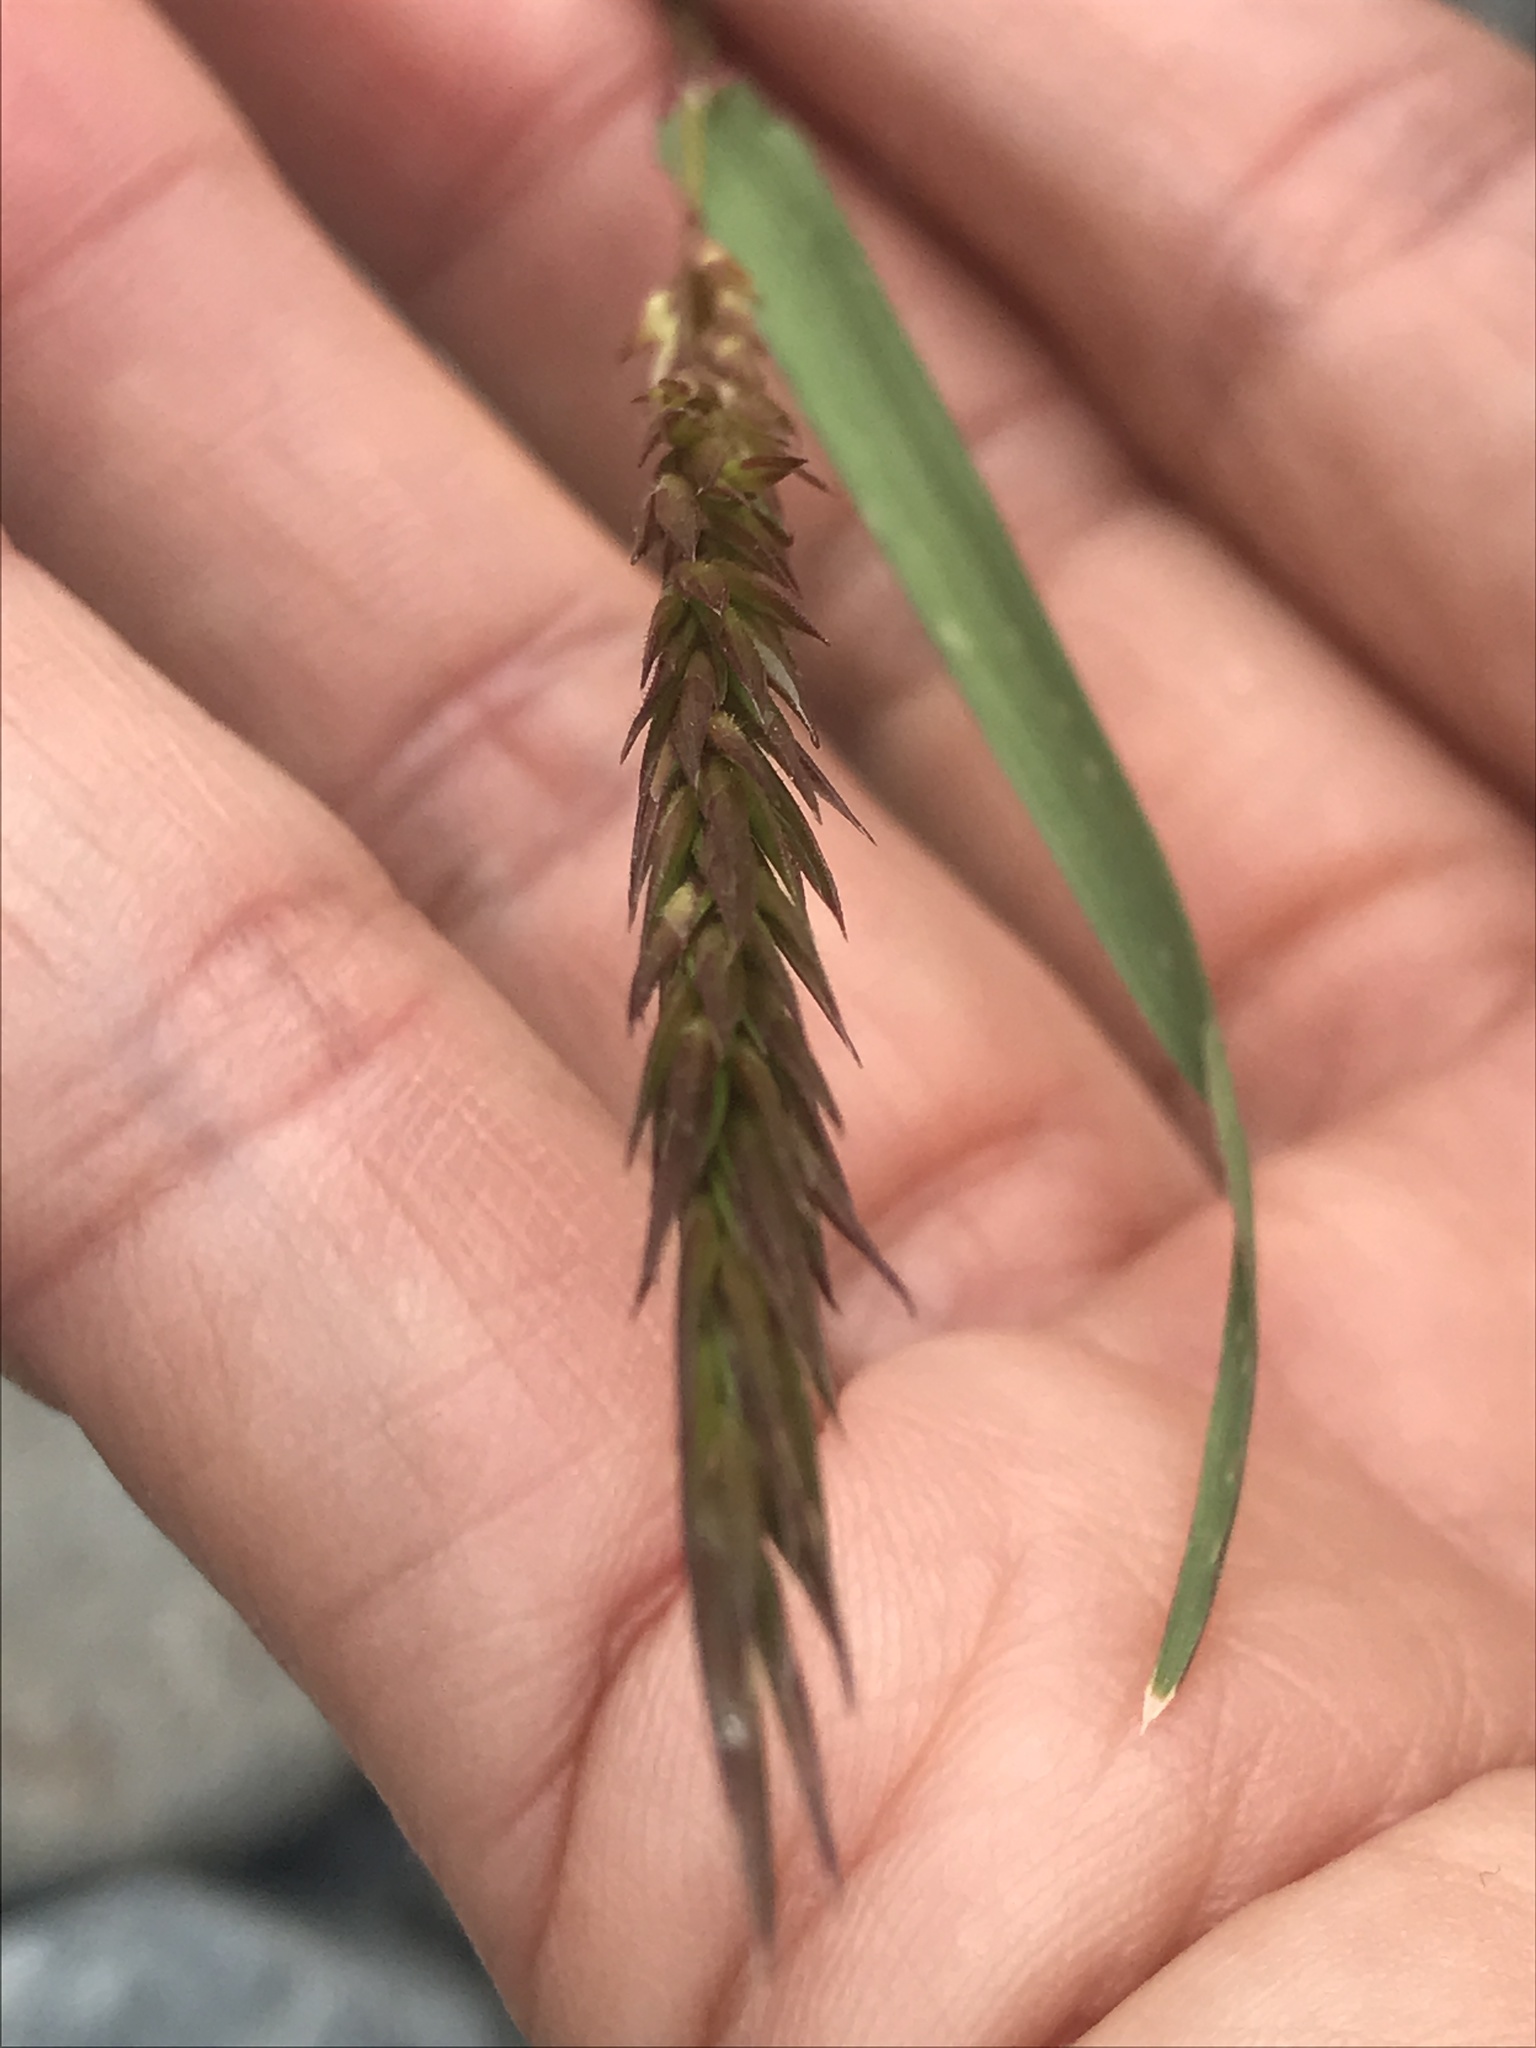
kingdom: Plantae
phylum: Tracheophyta
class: Liliopsida
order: Poales
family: Poaceae
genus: Anthoxanthum
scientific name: Anthoxanthum odoratum
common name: Sweet vernalgrass
